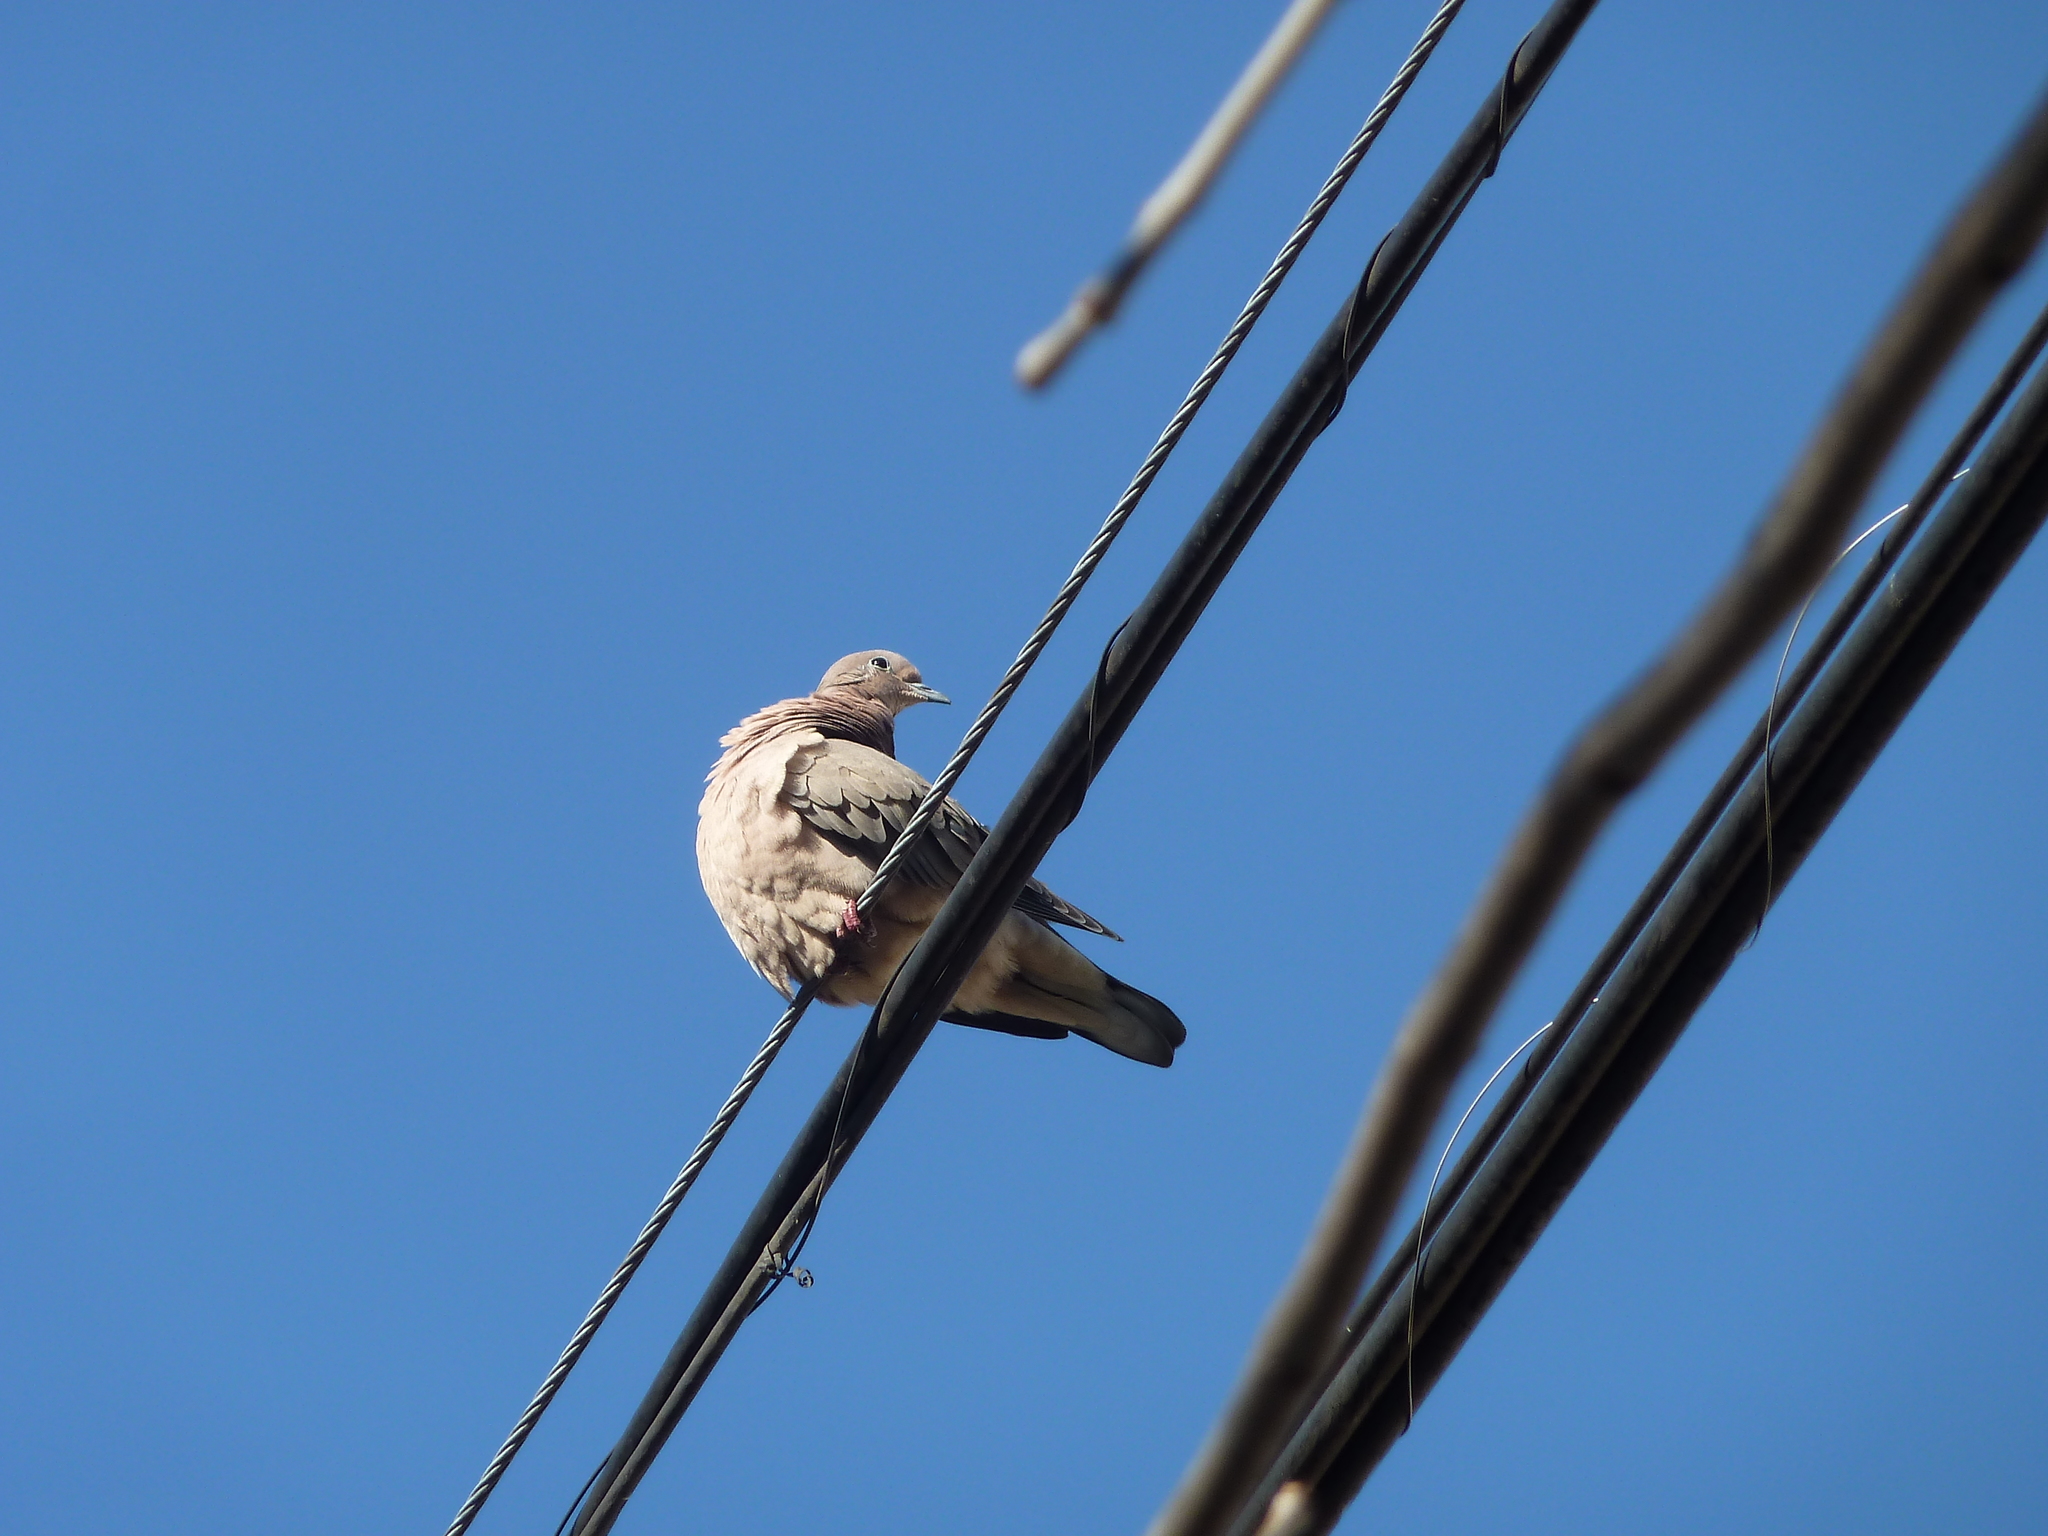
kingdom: Animalia
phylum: Chordata
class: Aves
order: Columbiformes
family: Columbidae
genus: Zenaida
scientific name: Zenaida auriculata
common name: Eared dove
